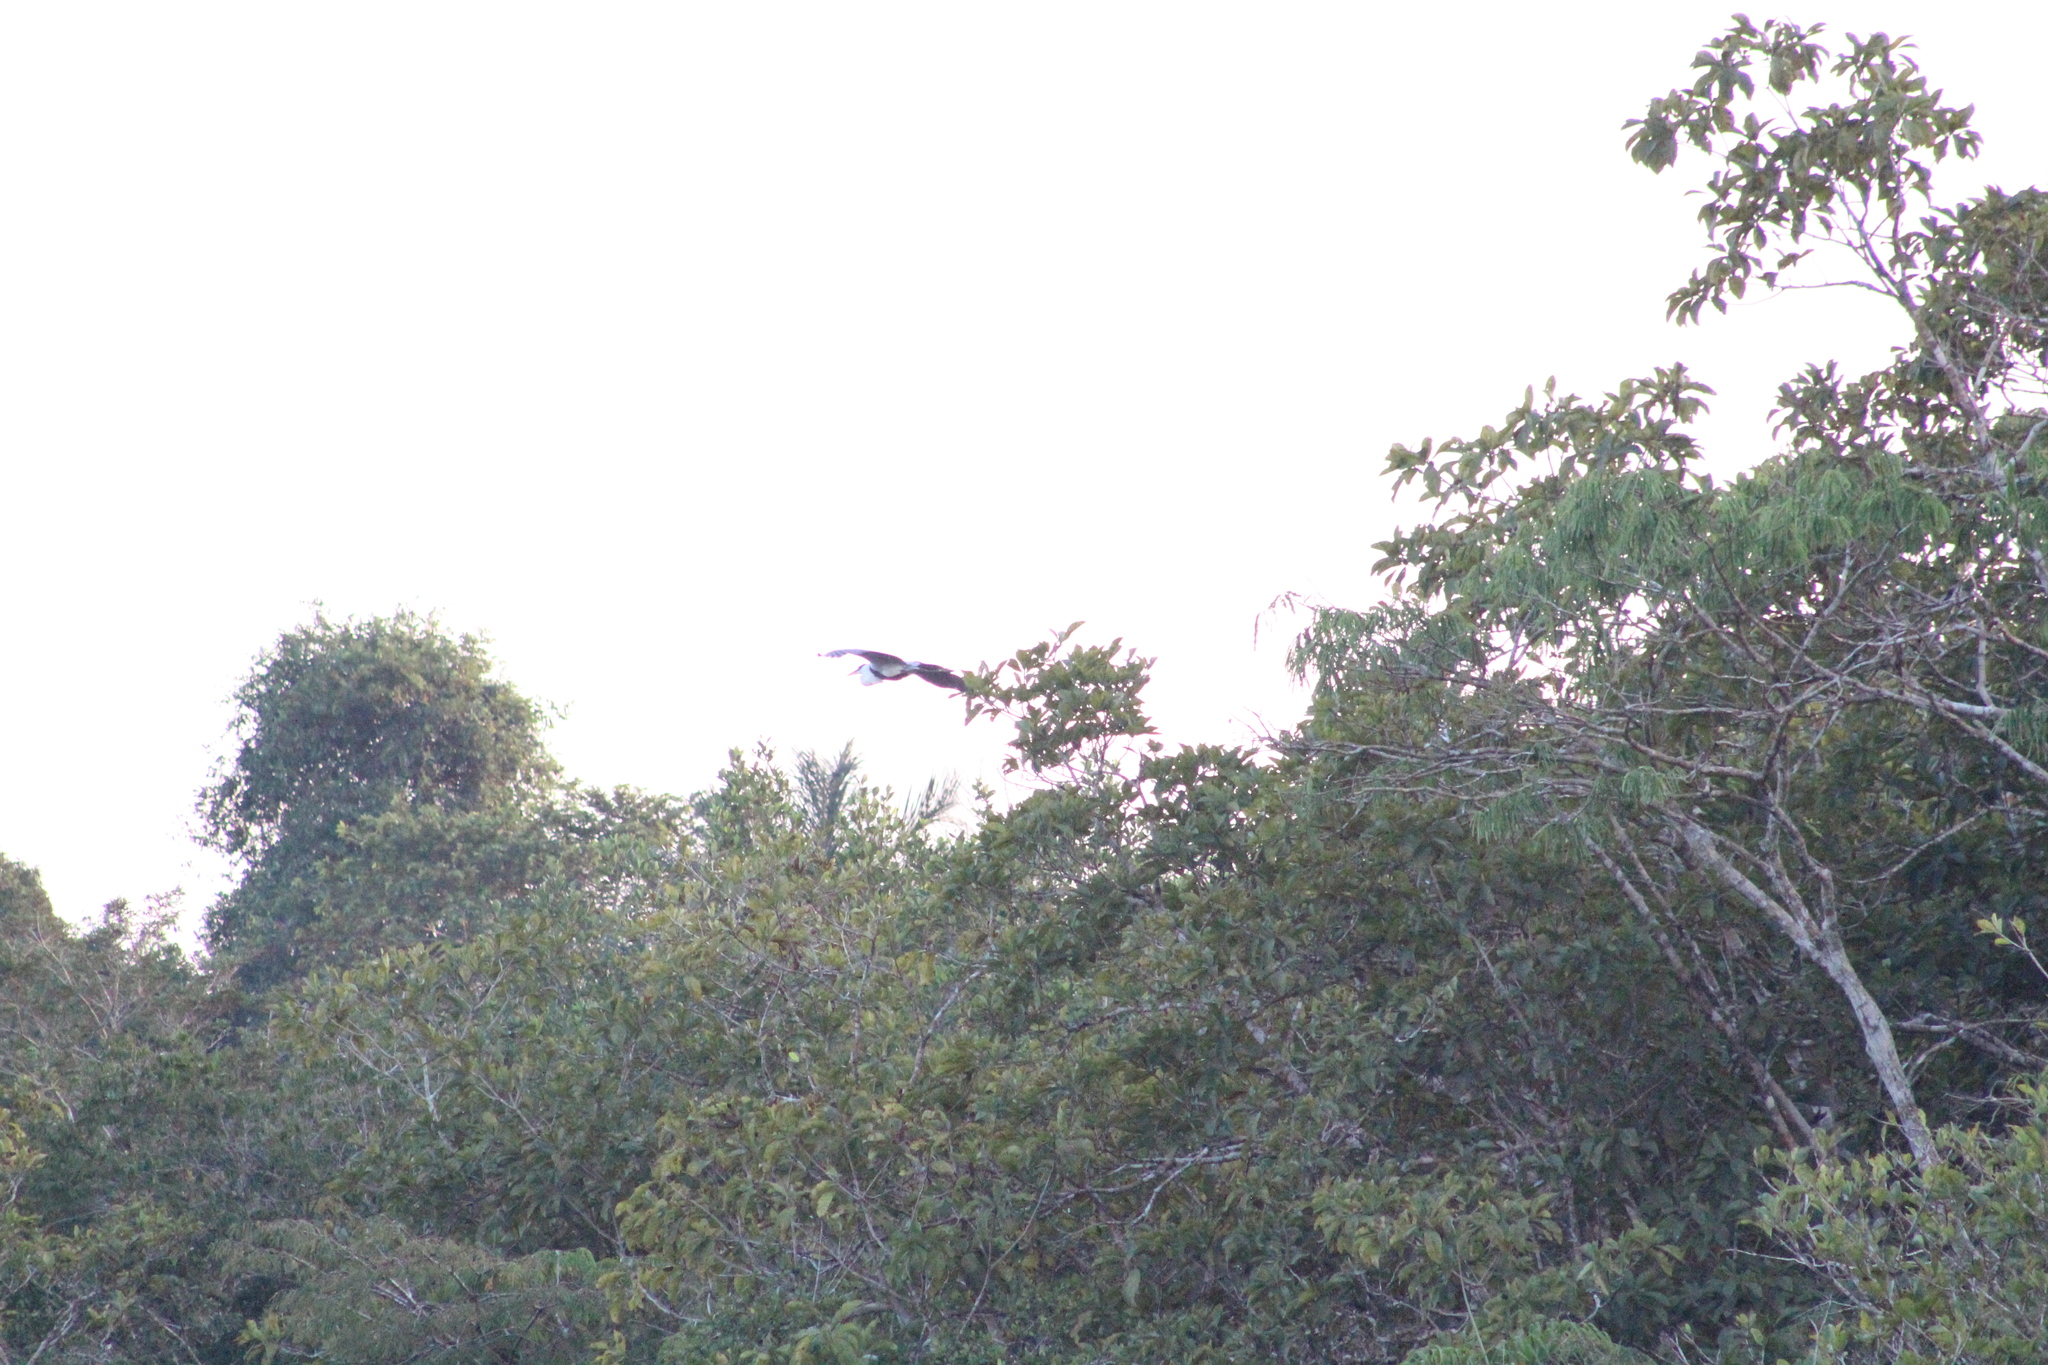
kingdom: Animalia
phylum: Chordata
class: Aves
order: Pelecaniformes
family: Ardeidae
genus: Ardea
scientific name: Ardea cocoi
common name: Cocoi heron
